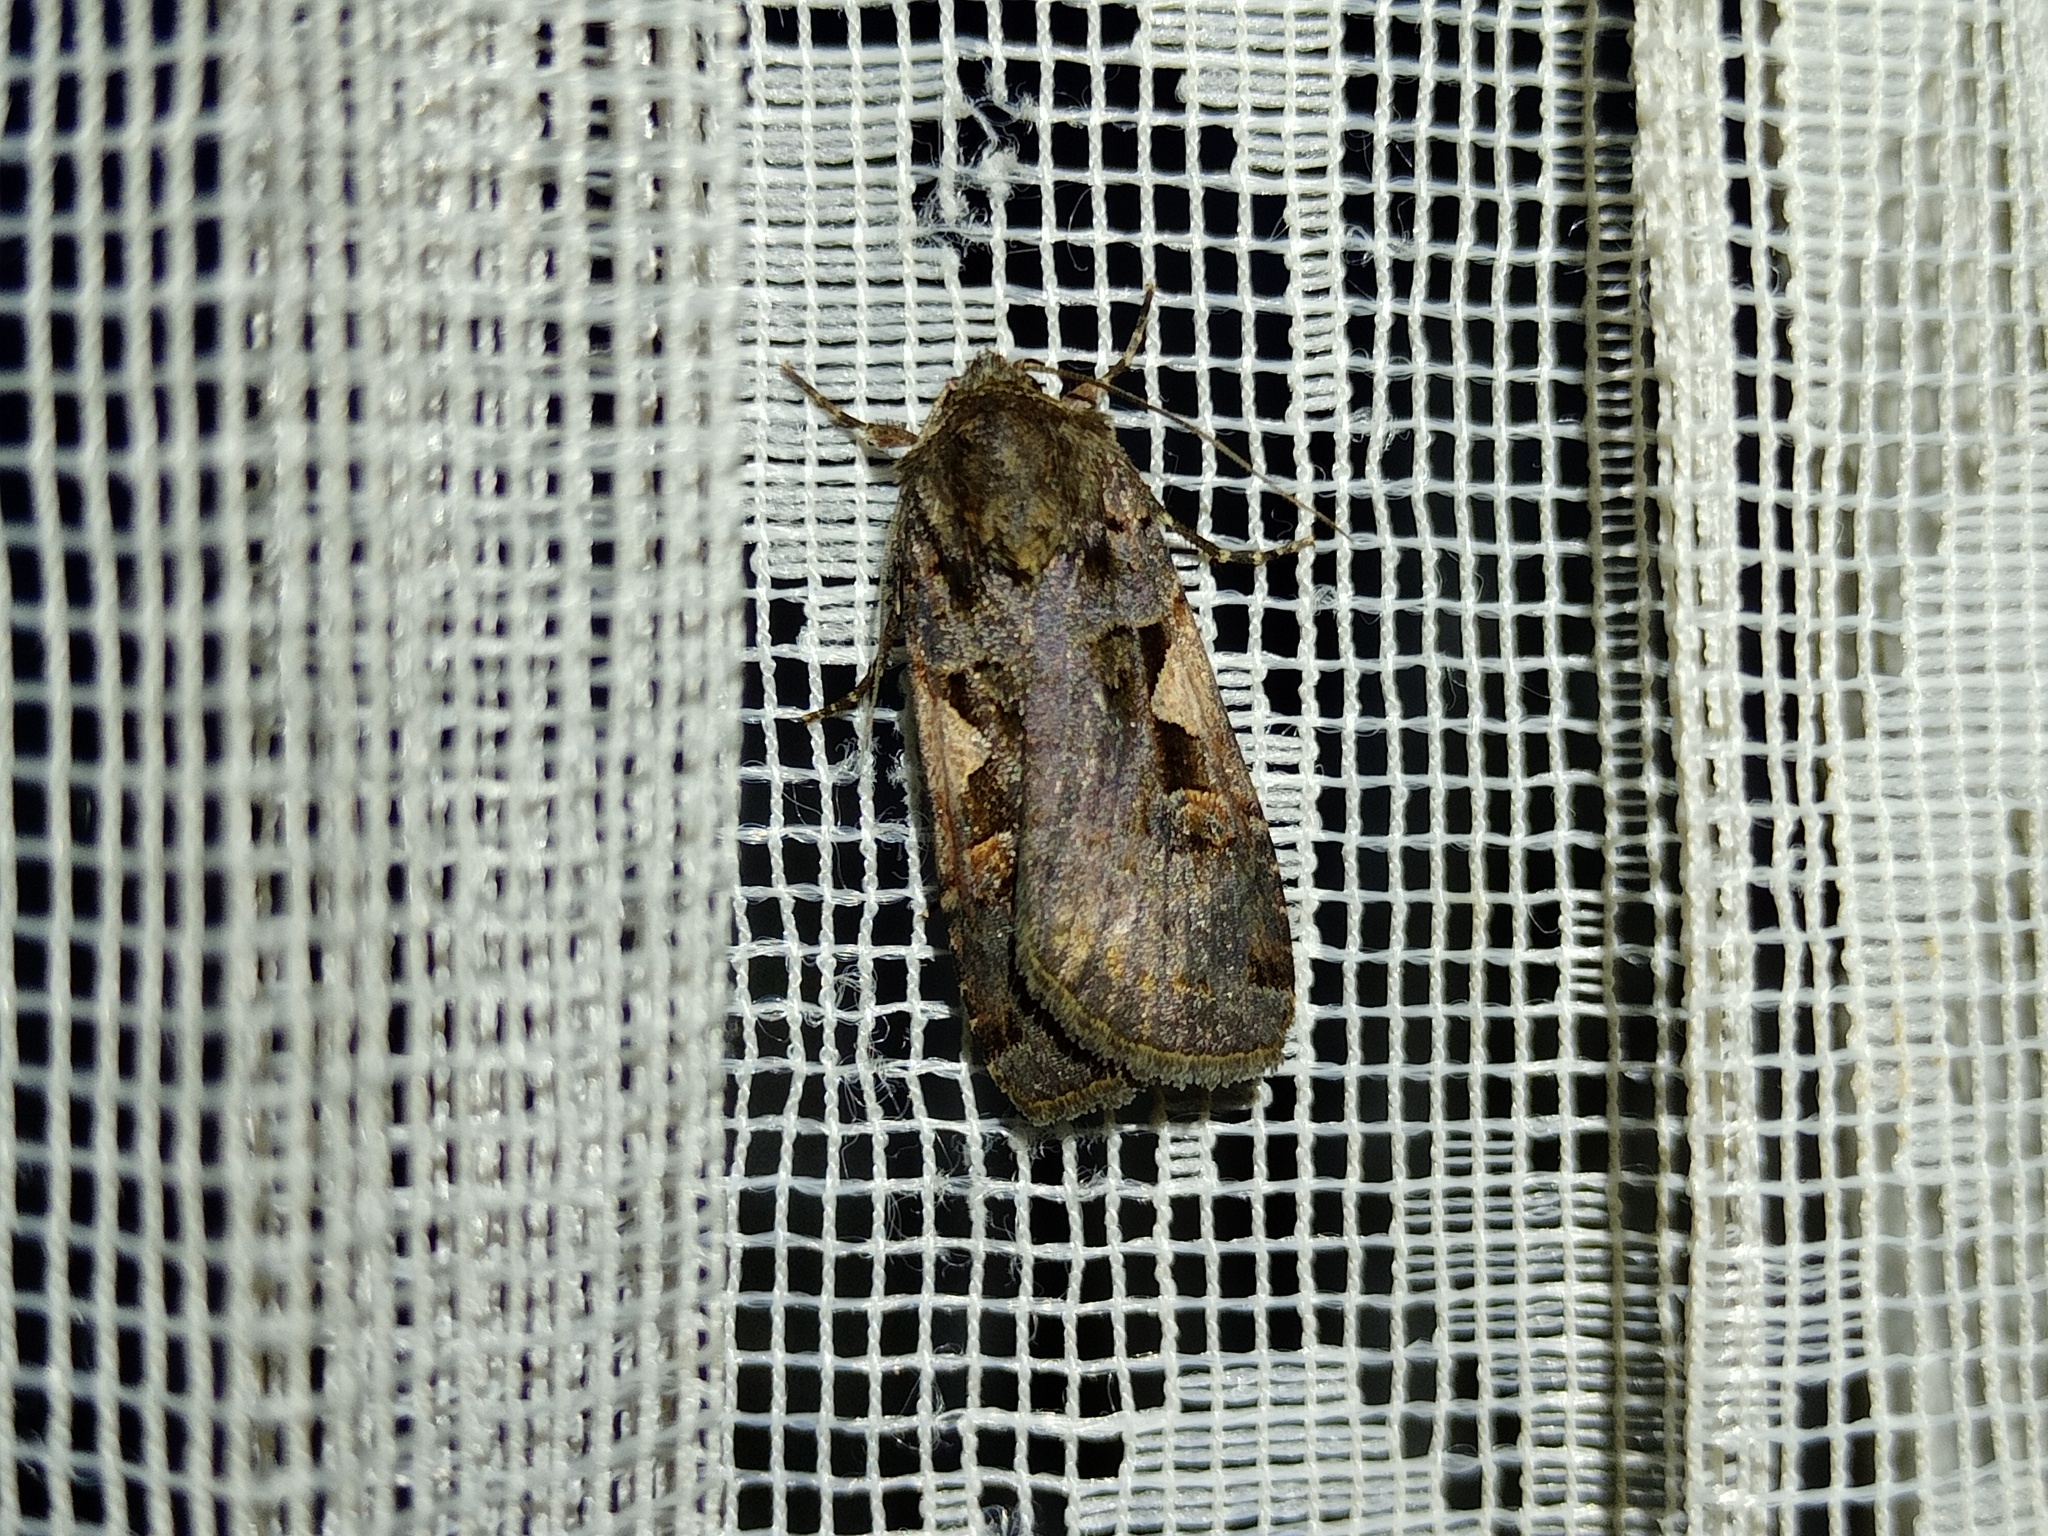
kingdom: Animalia
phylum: Arthropoda
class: Insecta
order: Lepidoptera
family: Noctuidae
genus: Xestia
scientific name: Xestia c-nigrum
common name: Setaceous hebrew character
